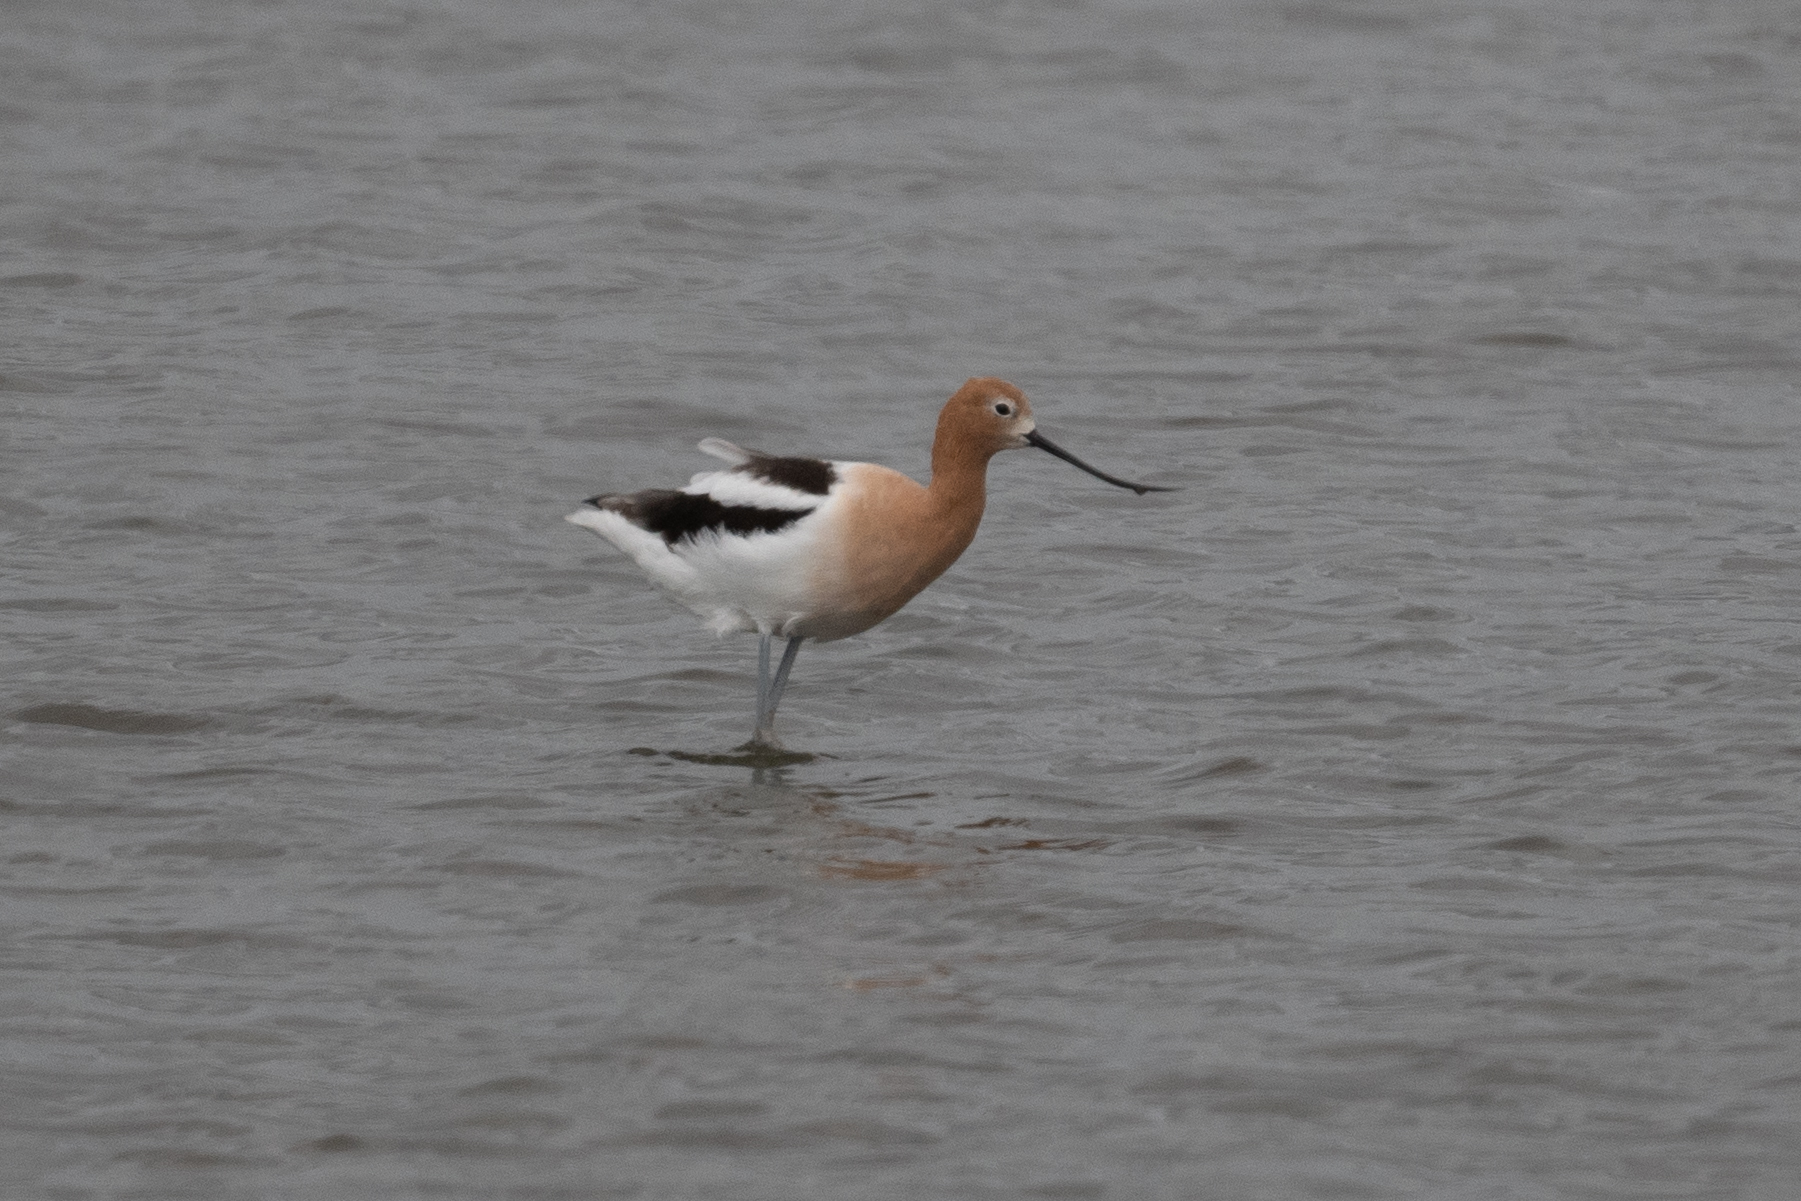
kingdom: Animalia
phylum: Chordata
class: Aves
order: Charadriiformes
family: Recurvirostridae
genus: Recurvirostra
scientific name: Recurvirostra americana
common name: American avocet
